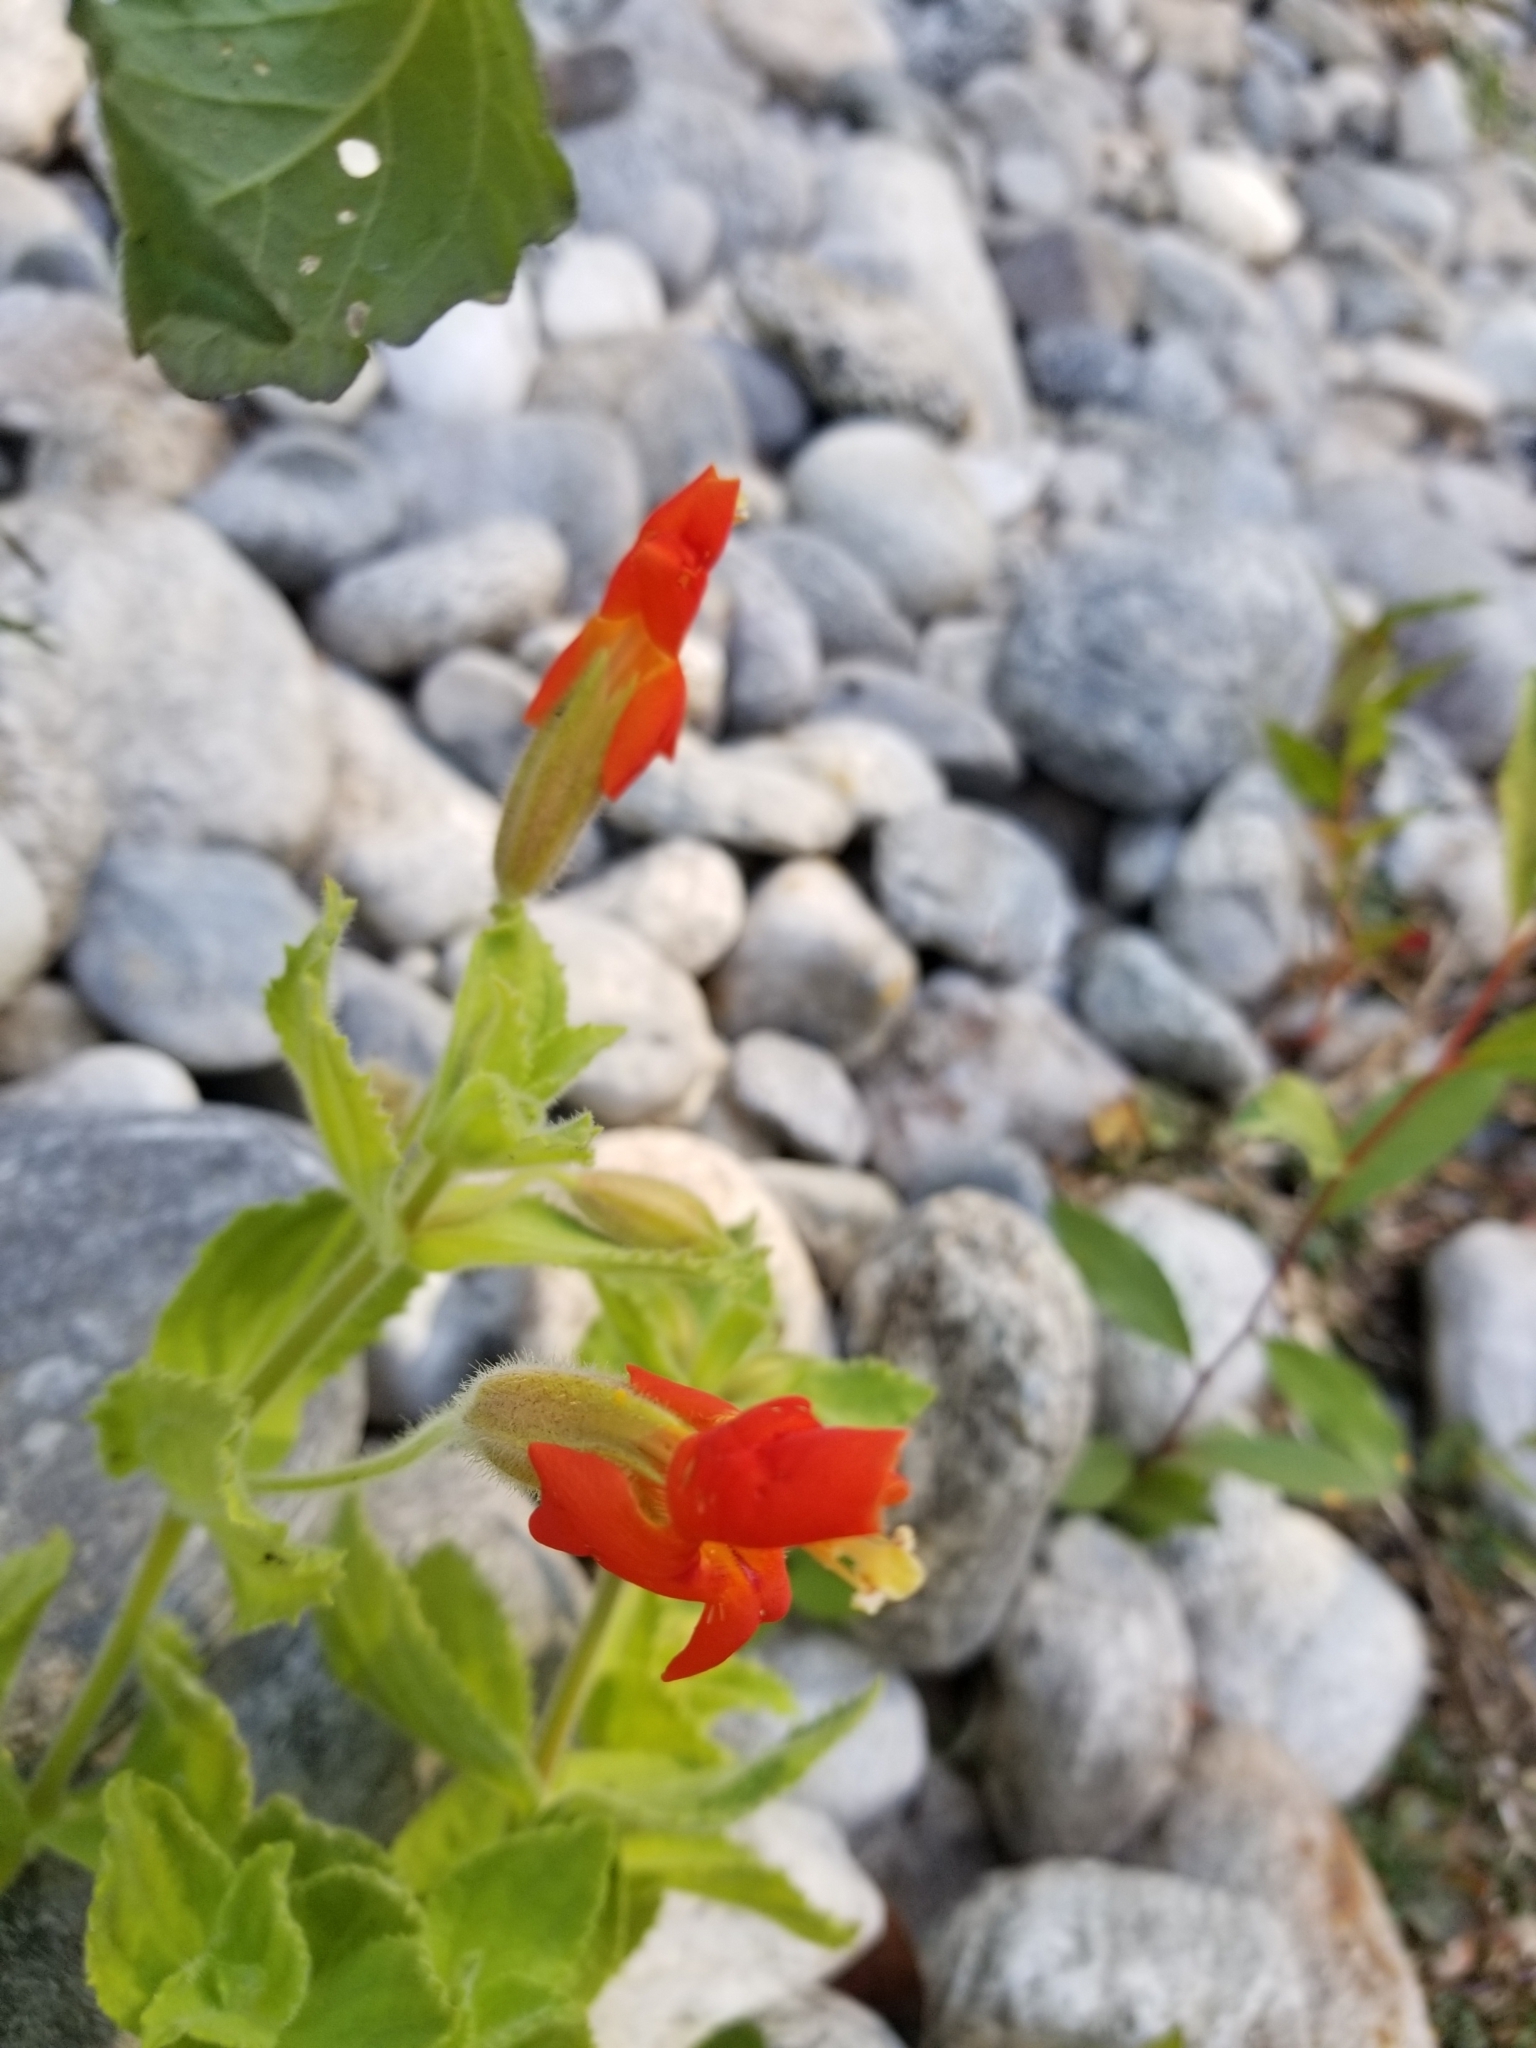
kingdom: Plantae
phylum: Tracheophyta
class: Magnoliopsida
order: Lamiales
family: Phrymaceae
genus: Erythranthe
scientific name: Erythranthe cardinalis
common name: Scarlet monkey-flower
